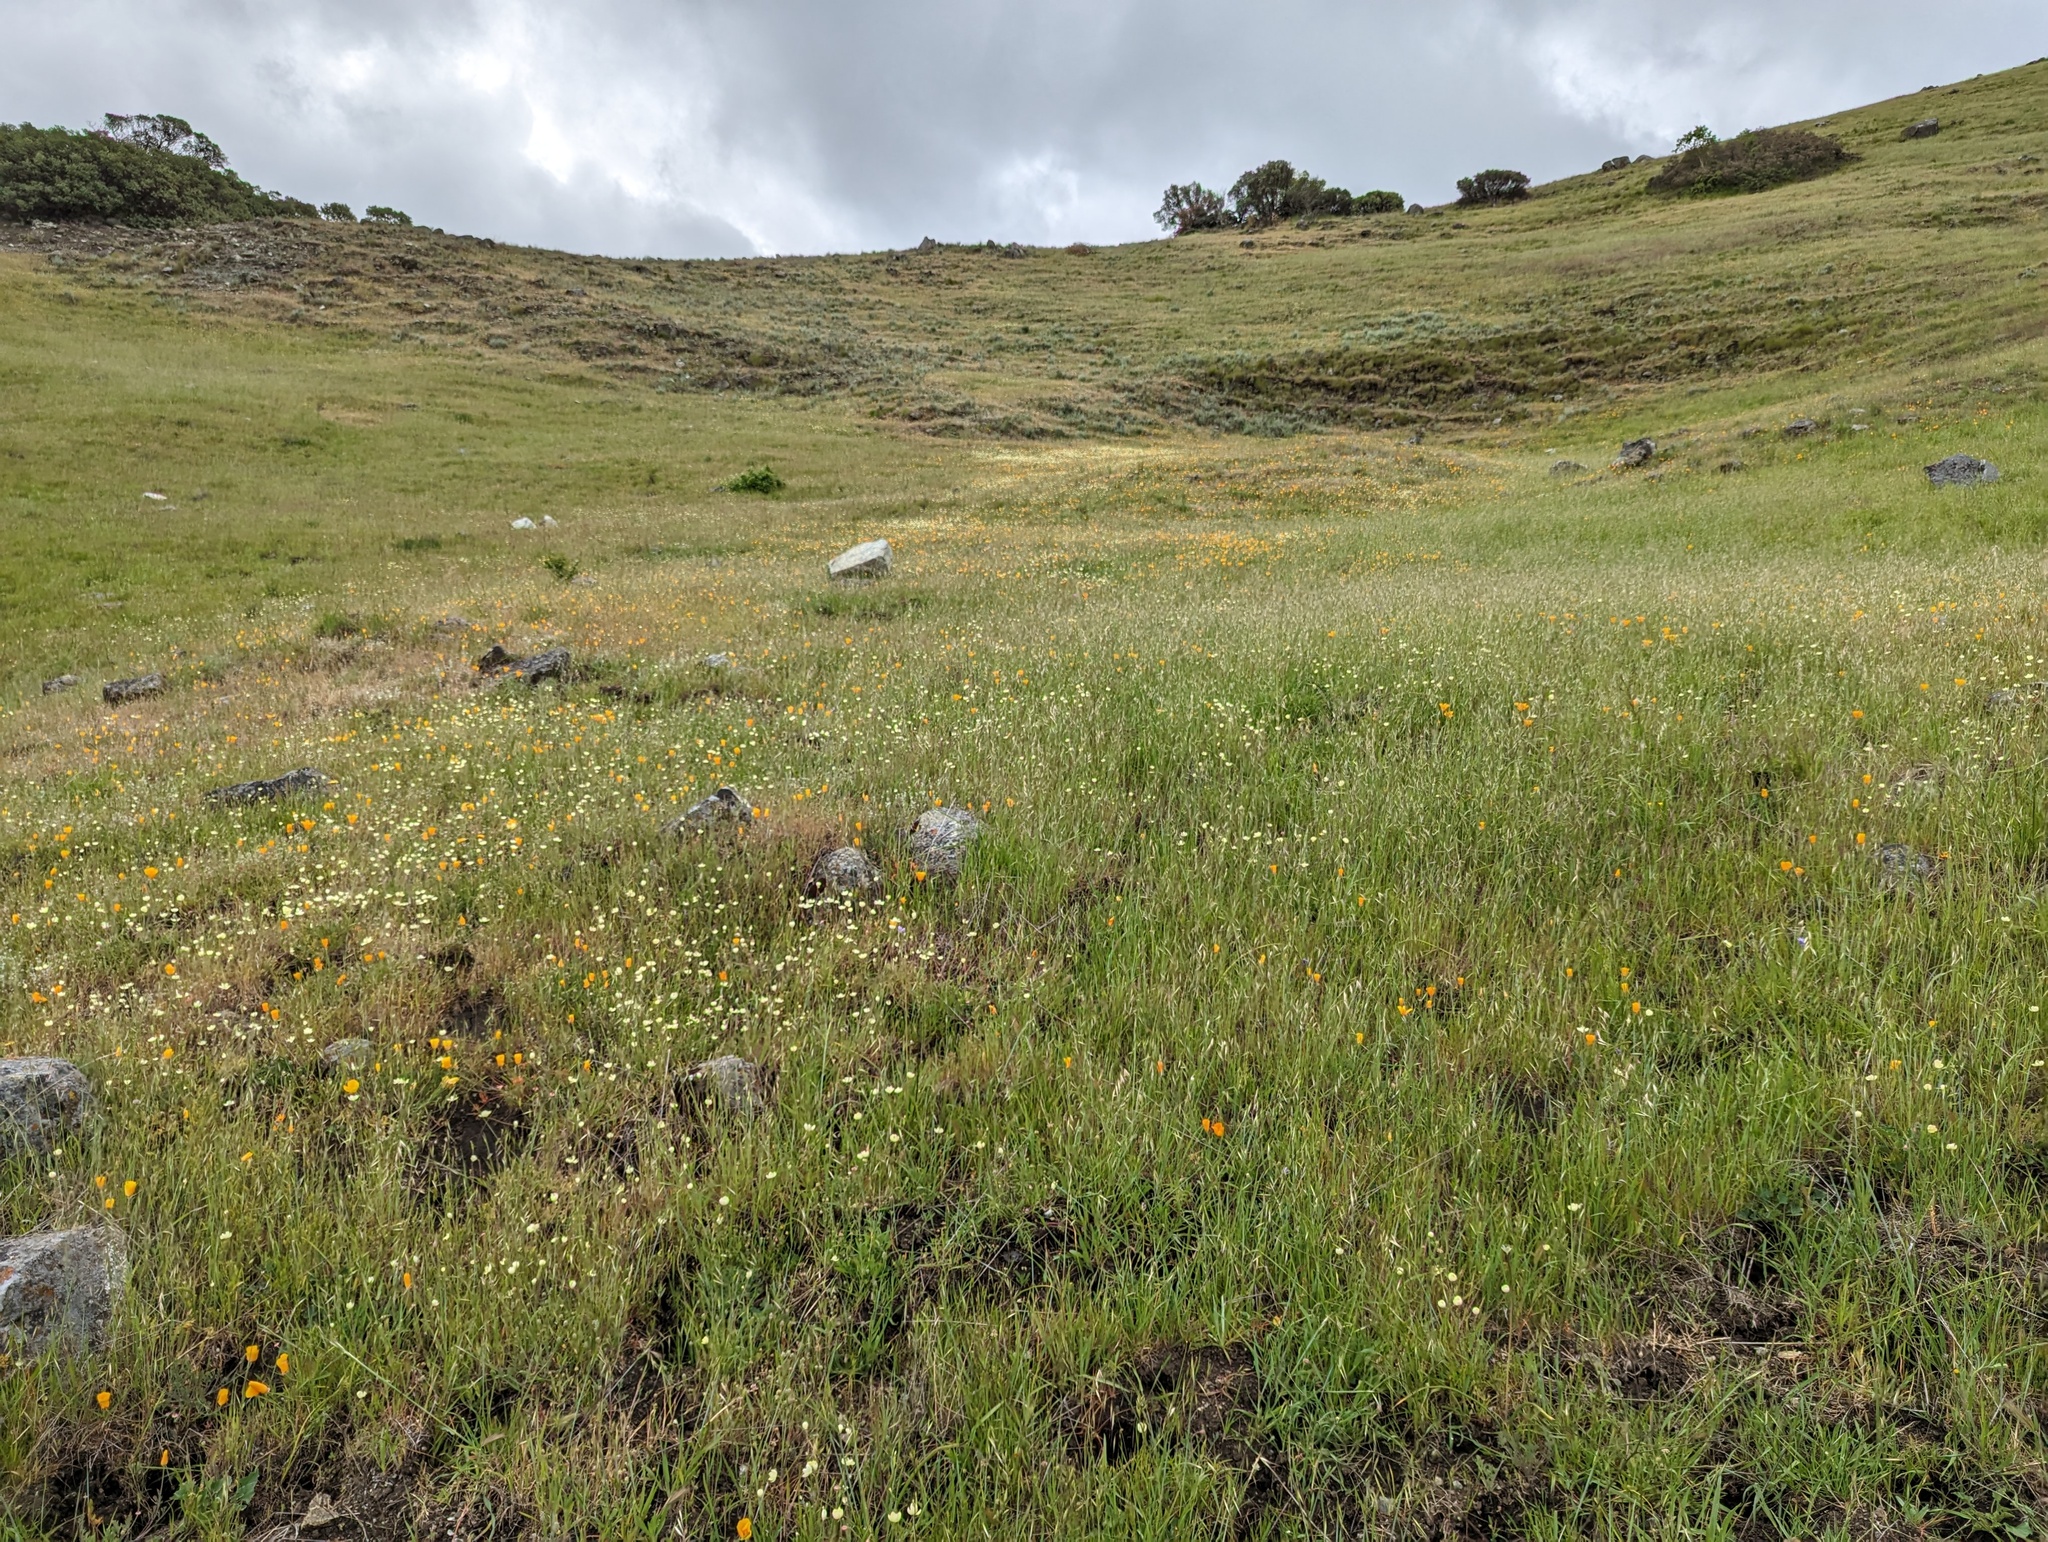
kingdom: Plantae
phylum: Tracheophyta
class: Magnoliopsida
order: Ranunculales
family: Papaveraceae
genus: Platystemon
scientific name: Platystemon californicus
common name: Cream-cups
